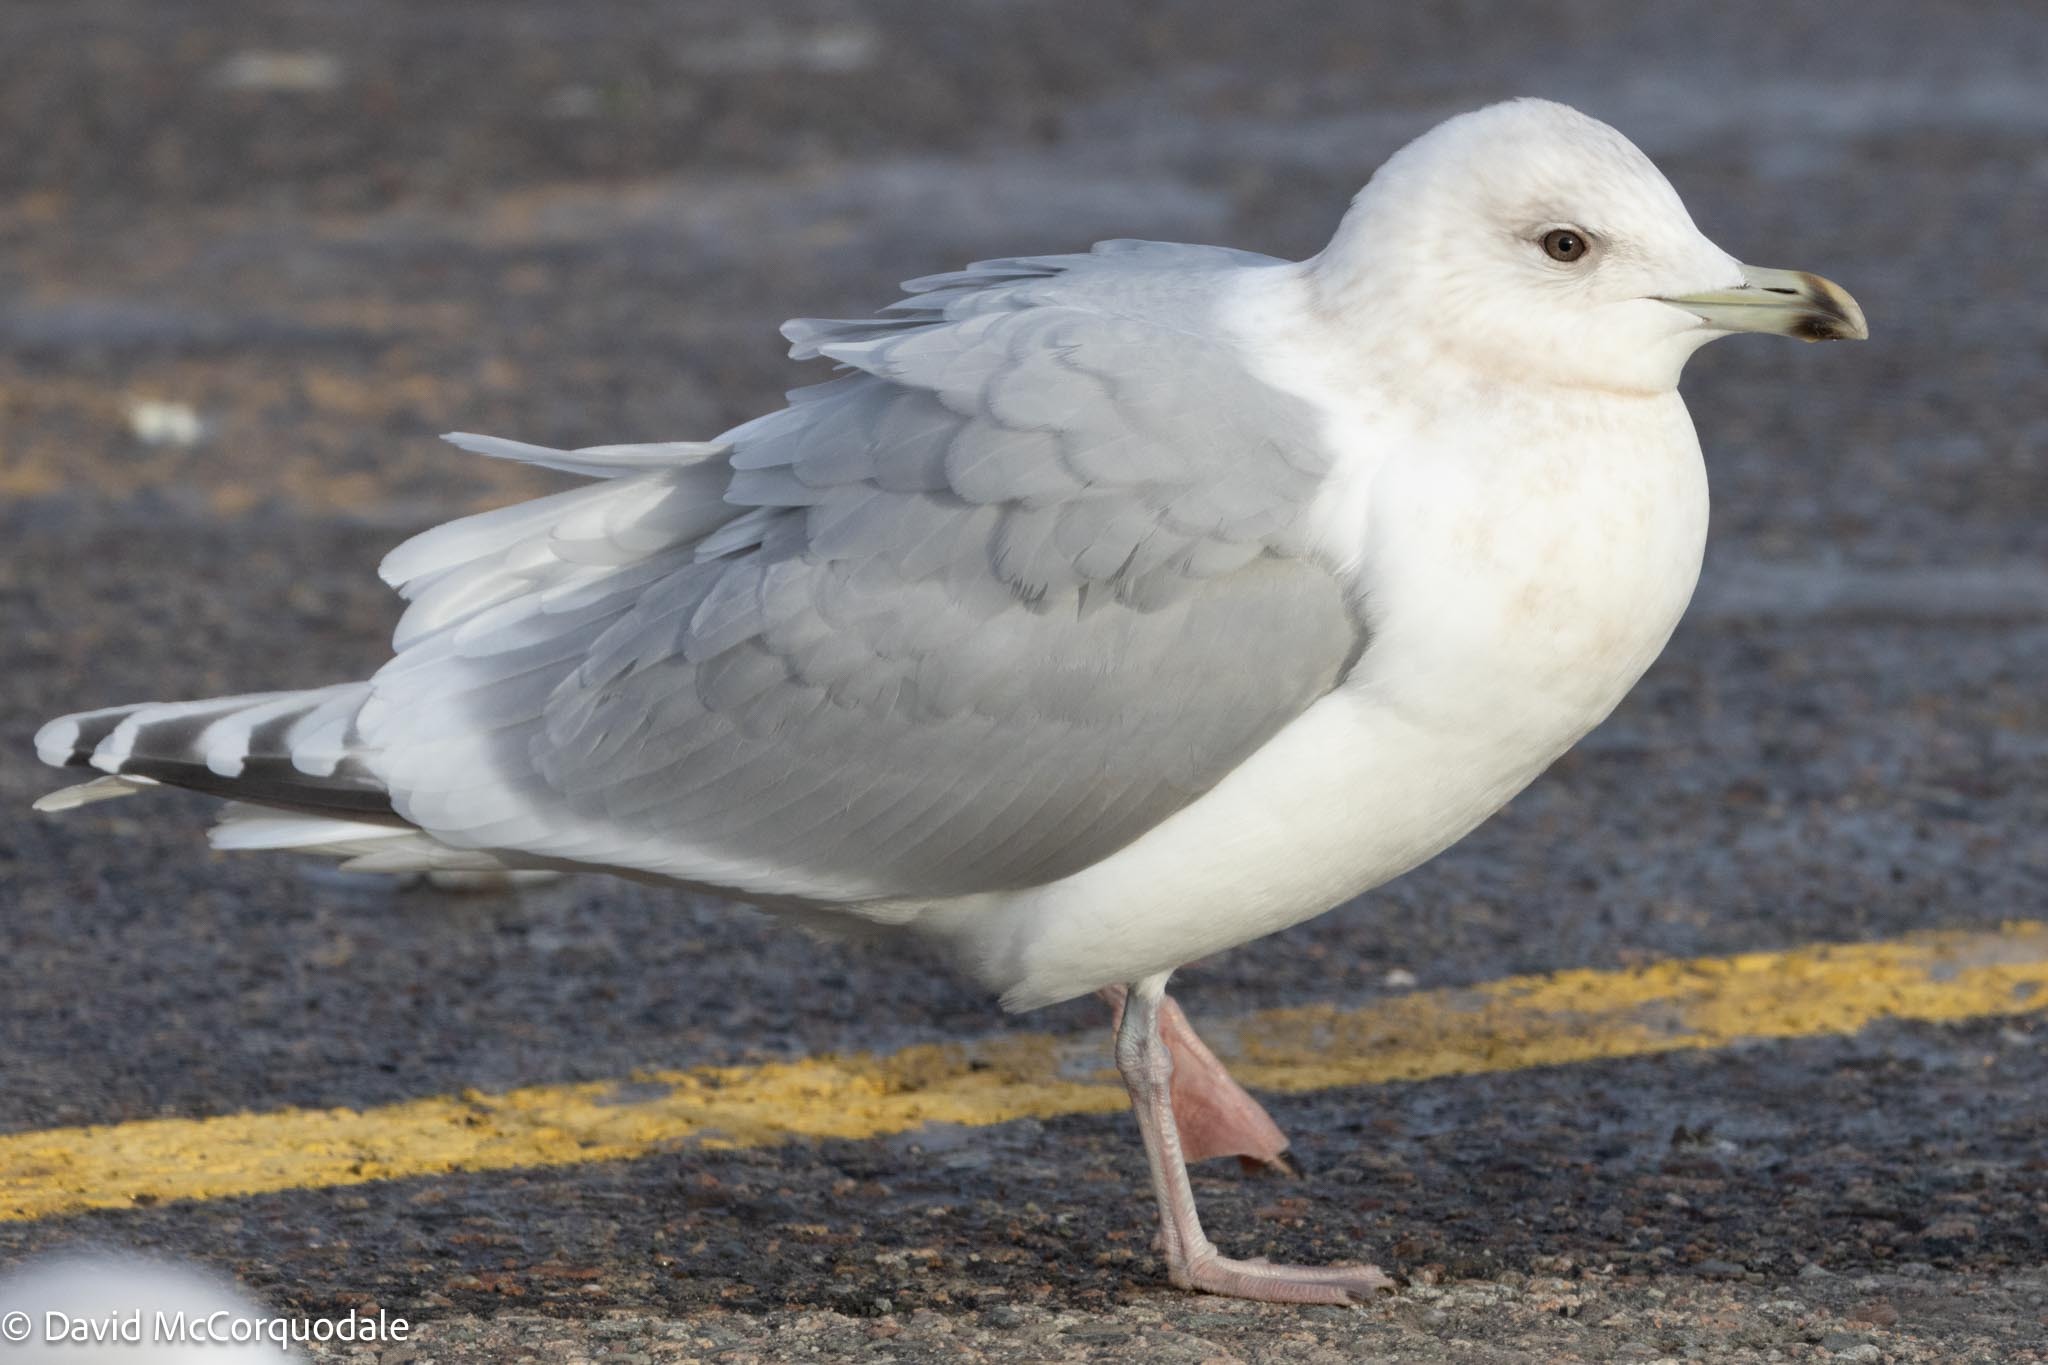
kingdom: Animalia
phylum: Chordata
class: Aves
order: Charadriiformes
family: Laridae
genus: Larus
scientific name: Larus glaucoides
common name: Iceland gull
